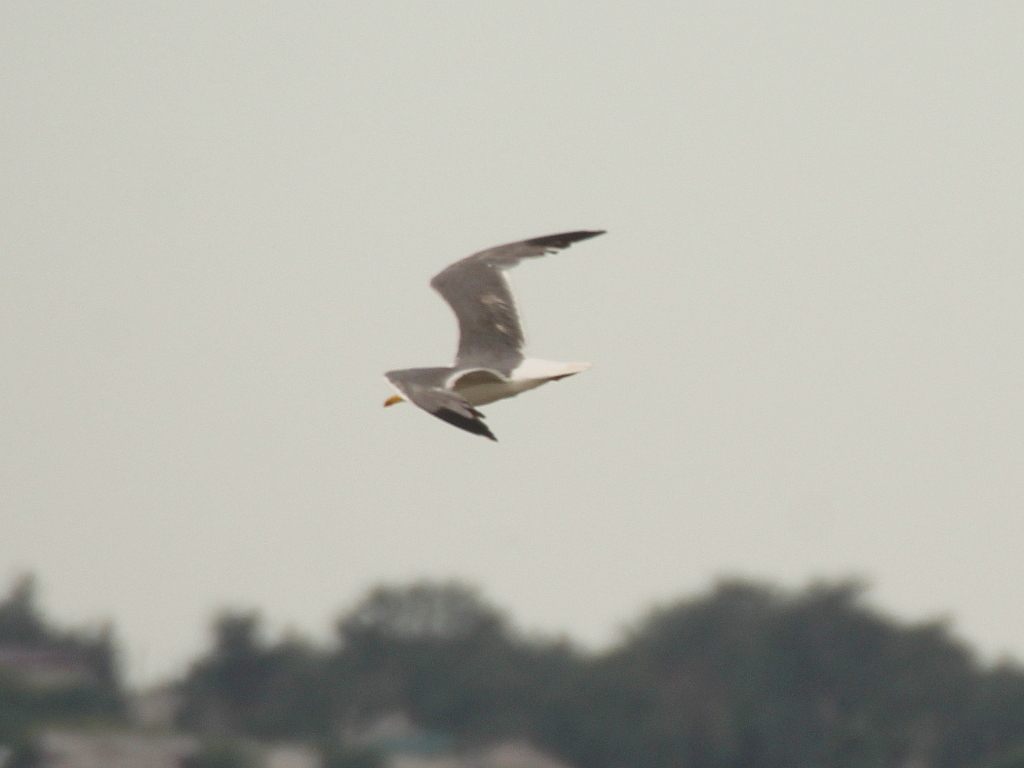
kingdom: Animalia
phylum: Chordata
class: Aves
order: Charadriiformes
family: Laridae
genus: Larus
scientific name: Larus fuscus
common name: Lesser black-backed gull
